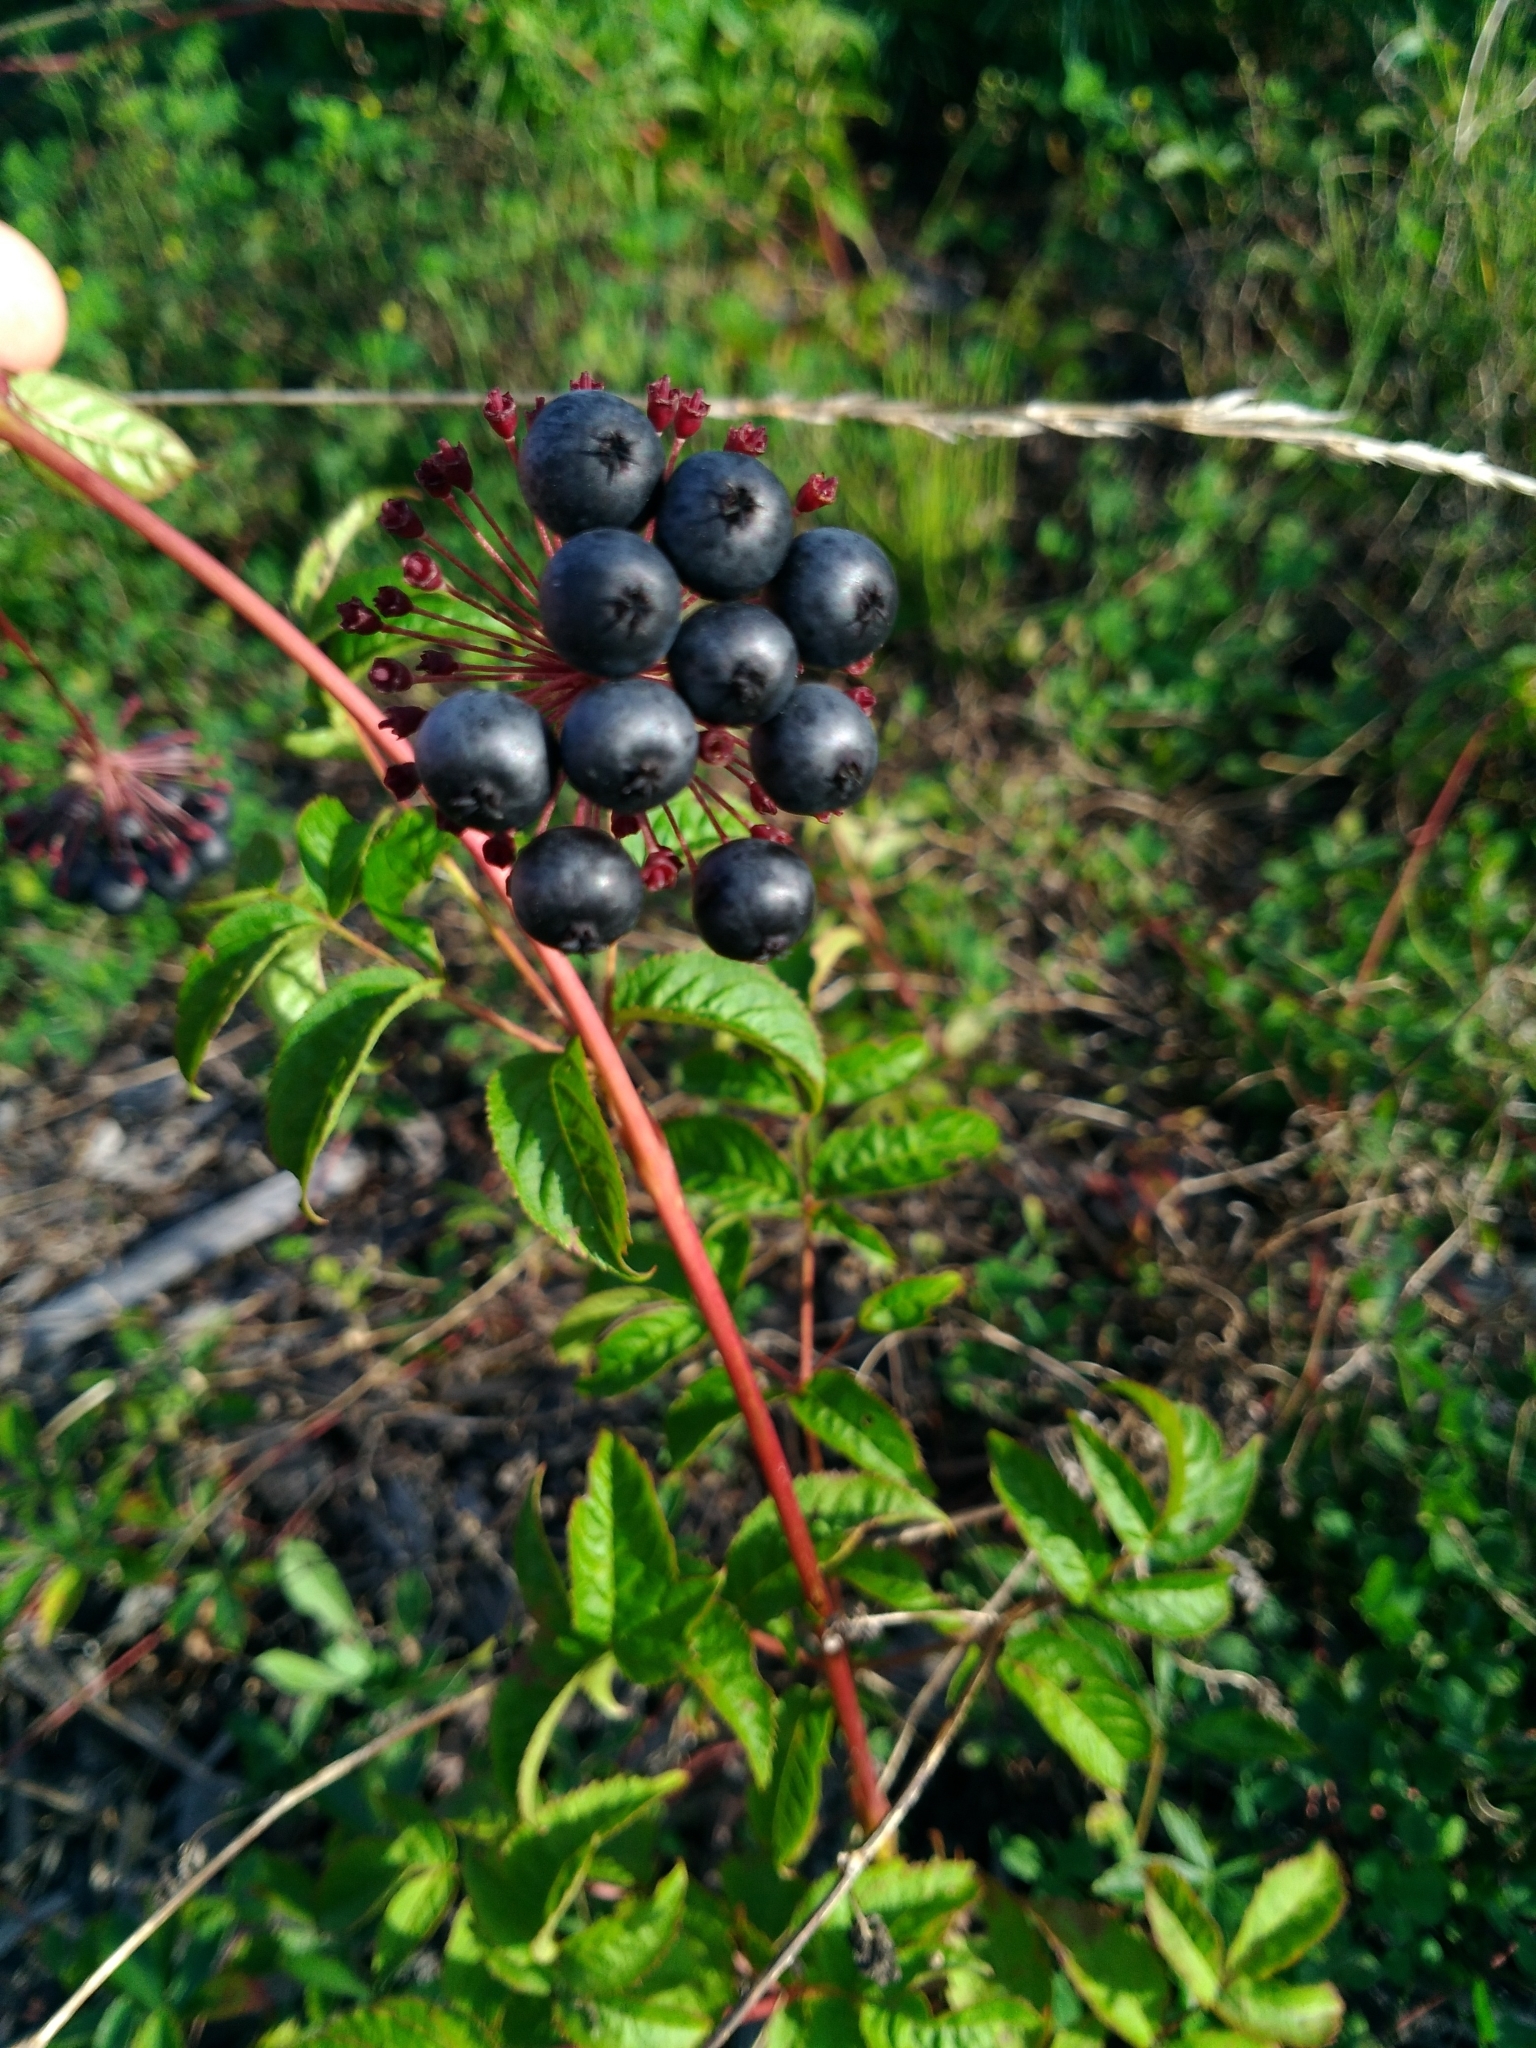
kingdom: Plantae
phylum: Tracheophyta
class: Magnoliopsida
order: Apiales
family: Araliaceae
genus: Aralia
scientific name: Aralia hispida
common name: Bristly sarsaparilla
